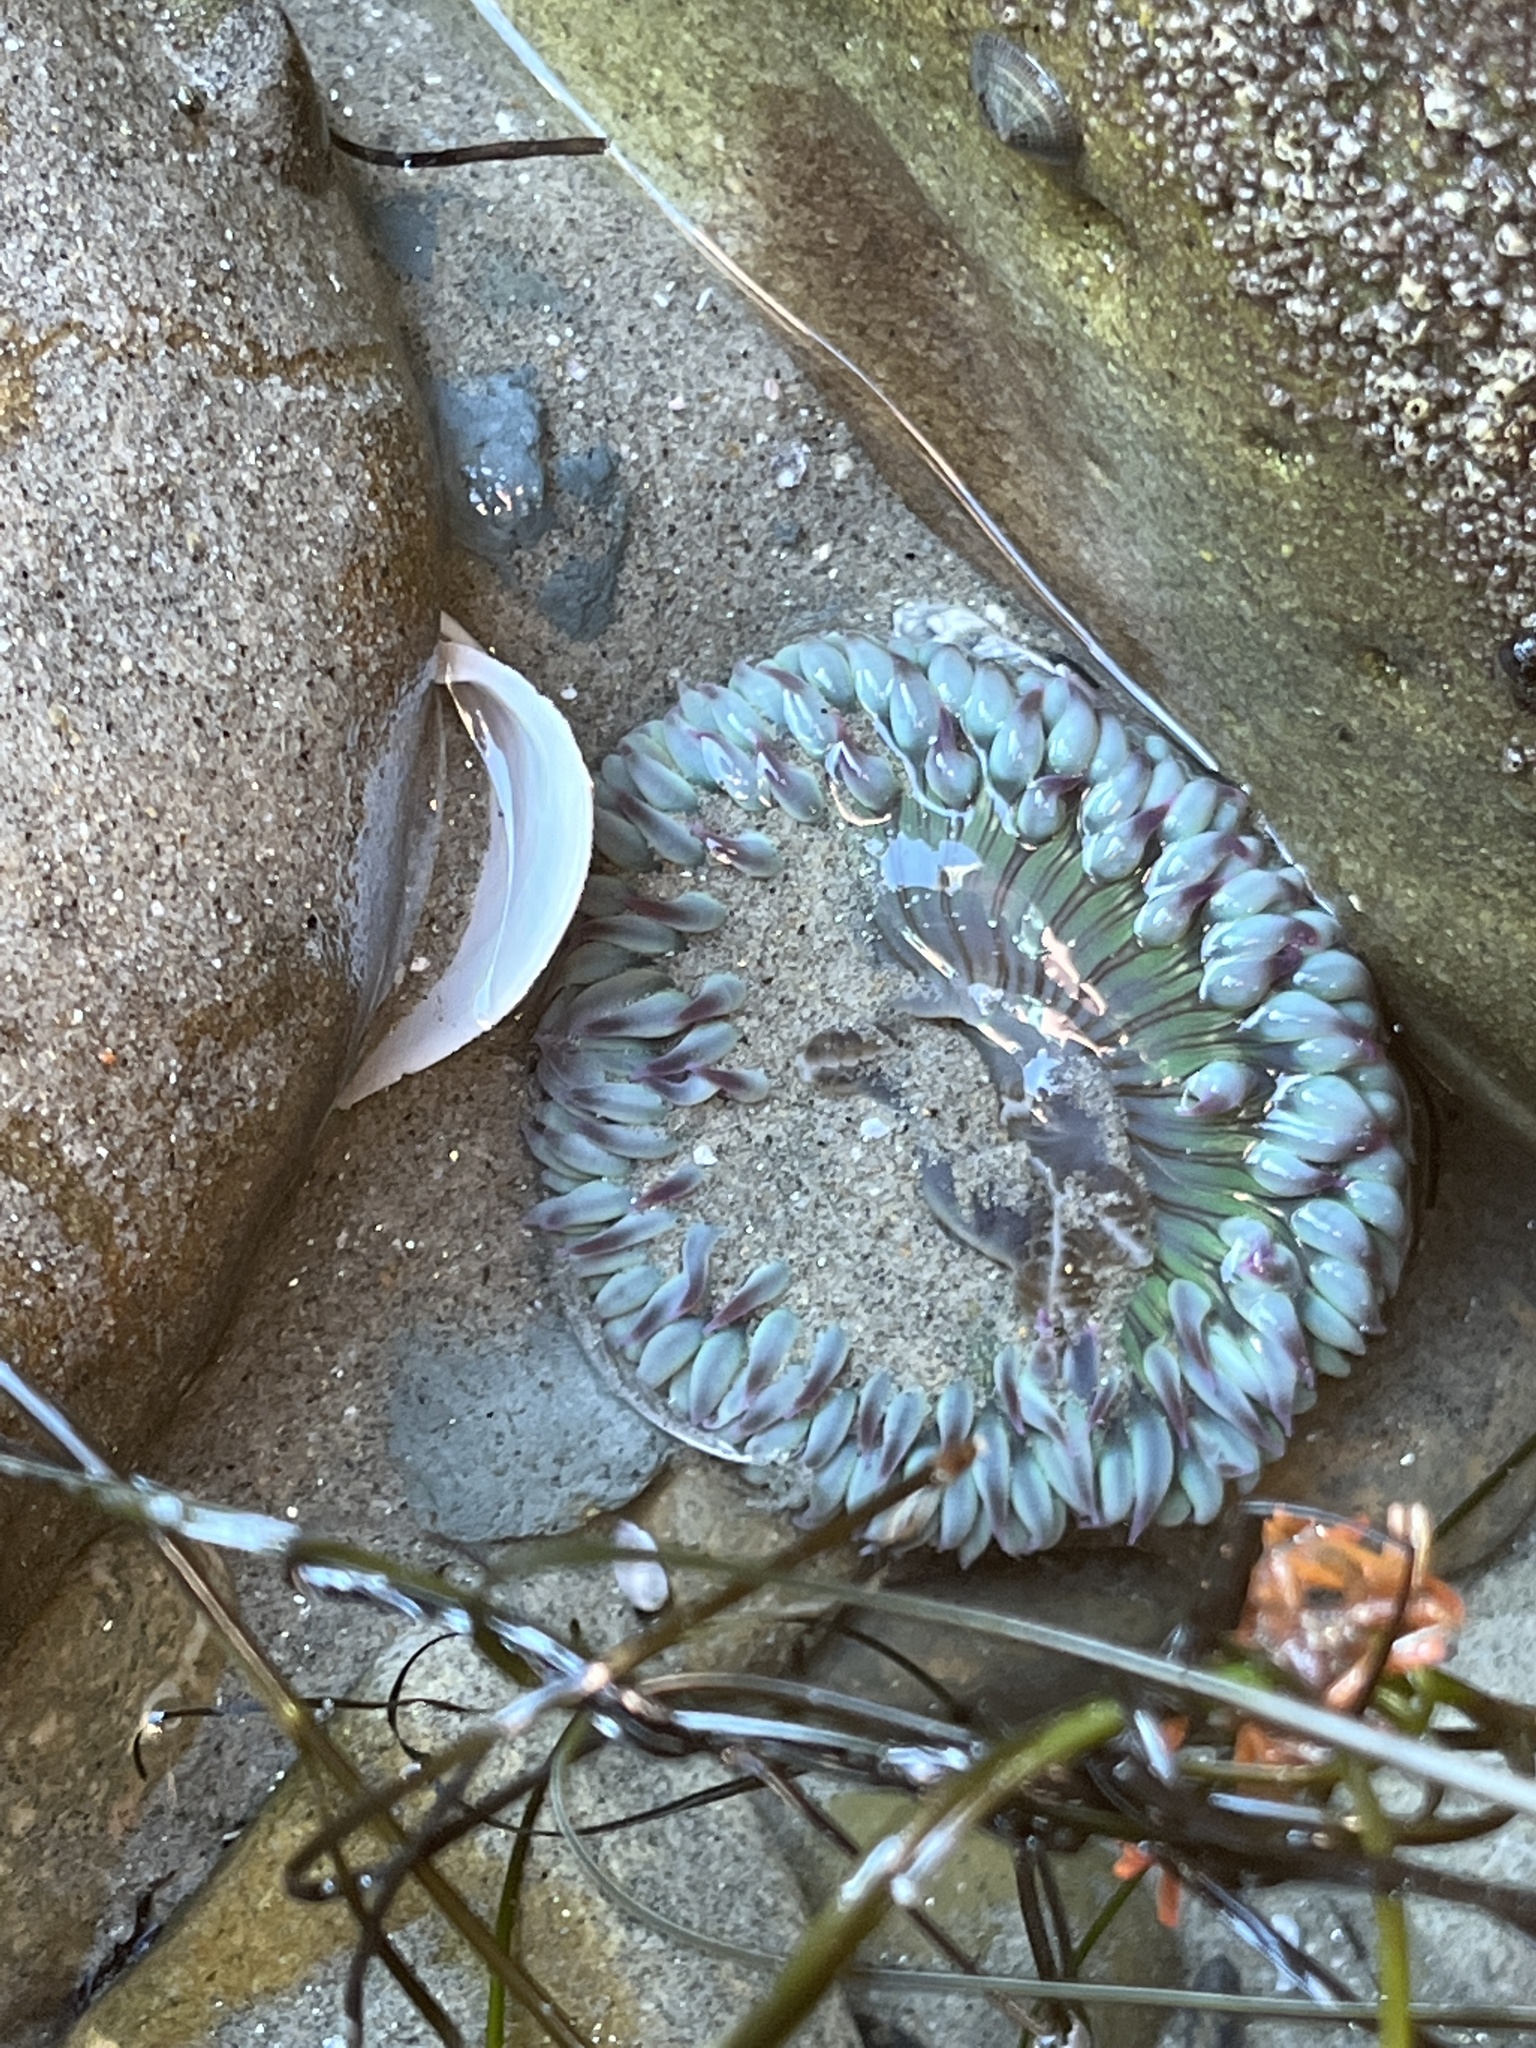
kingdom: Animalia
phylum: Cnidaria
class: Anthozoa
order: Actiniaria
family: Actiniidae
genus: Anthopleura
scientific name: Anthopleura sola
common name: Sun anemone
